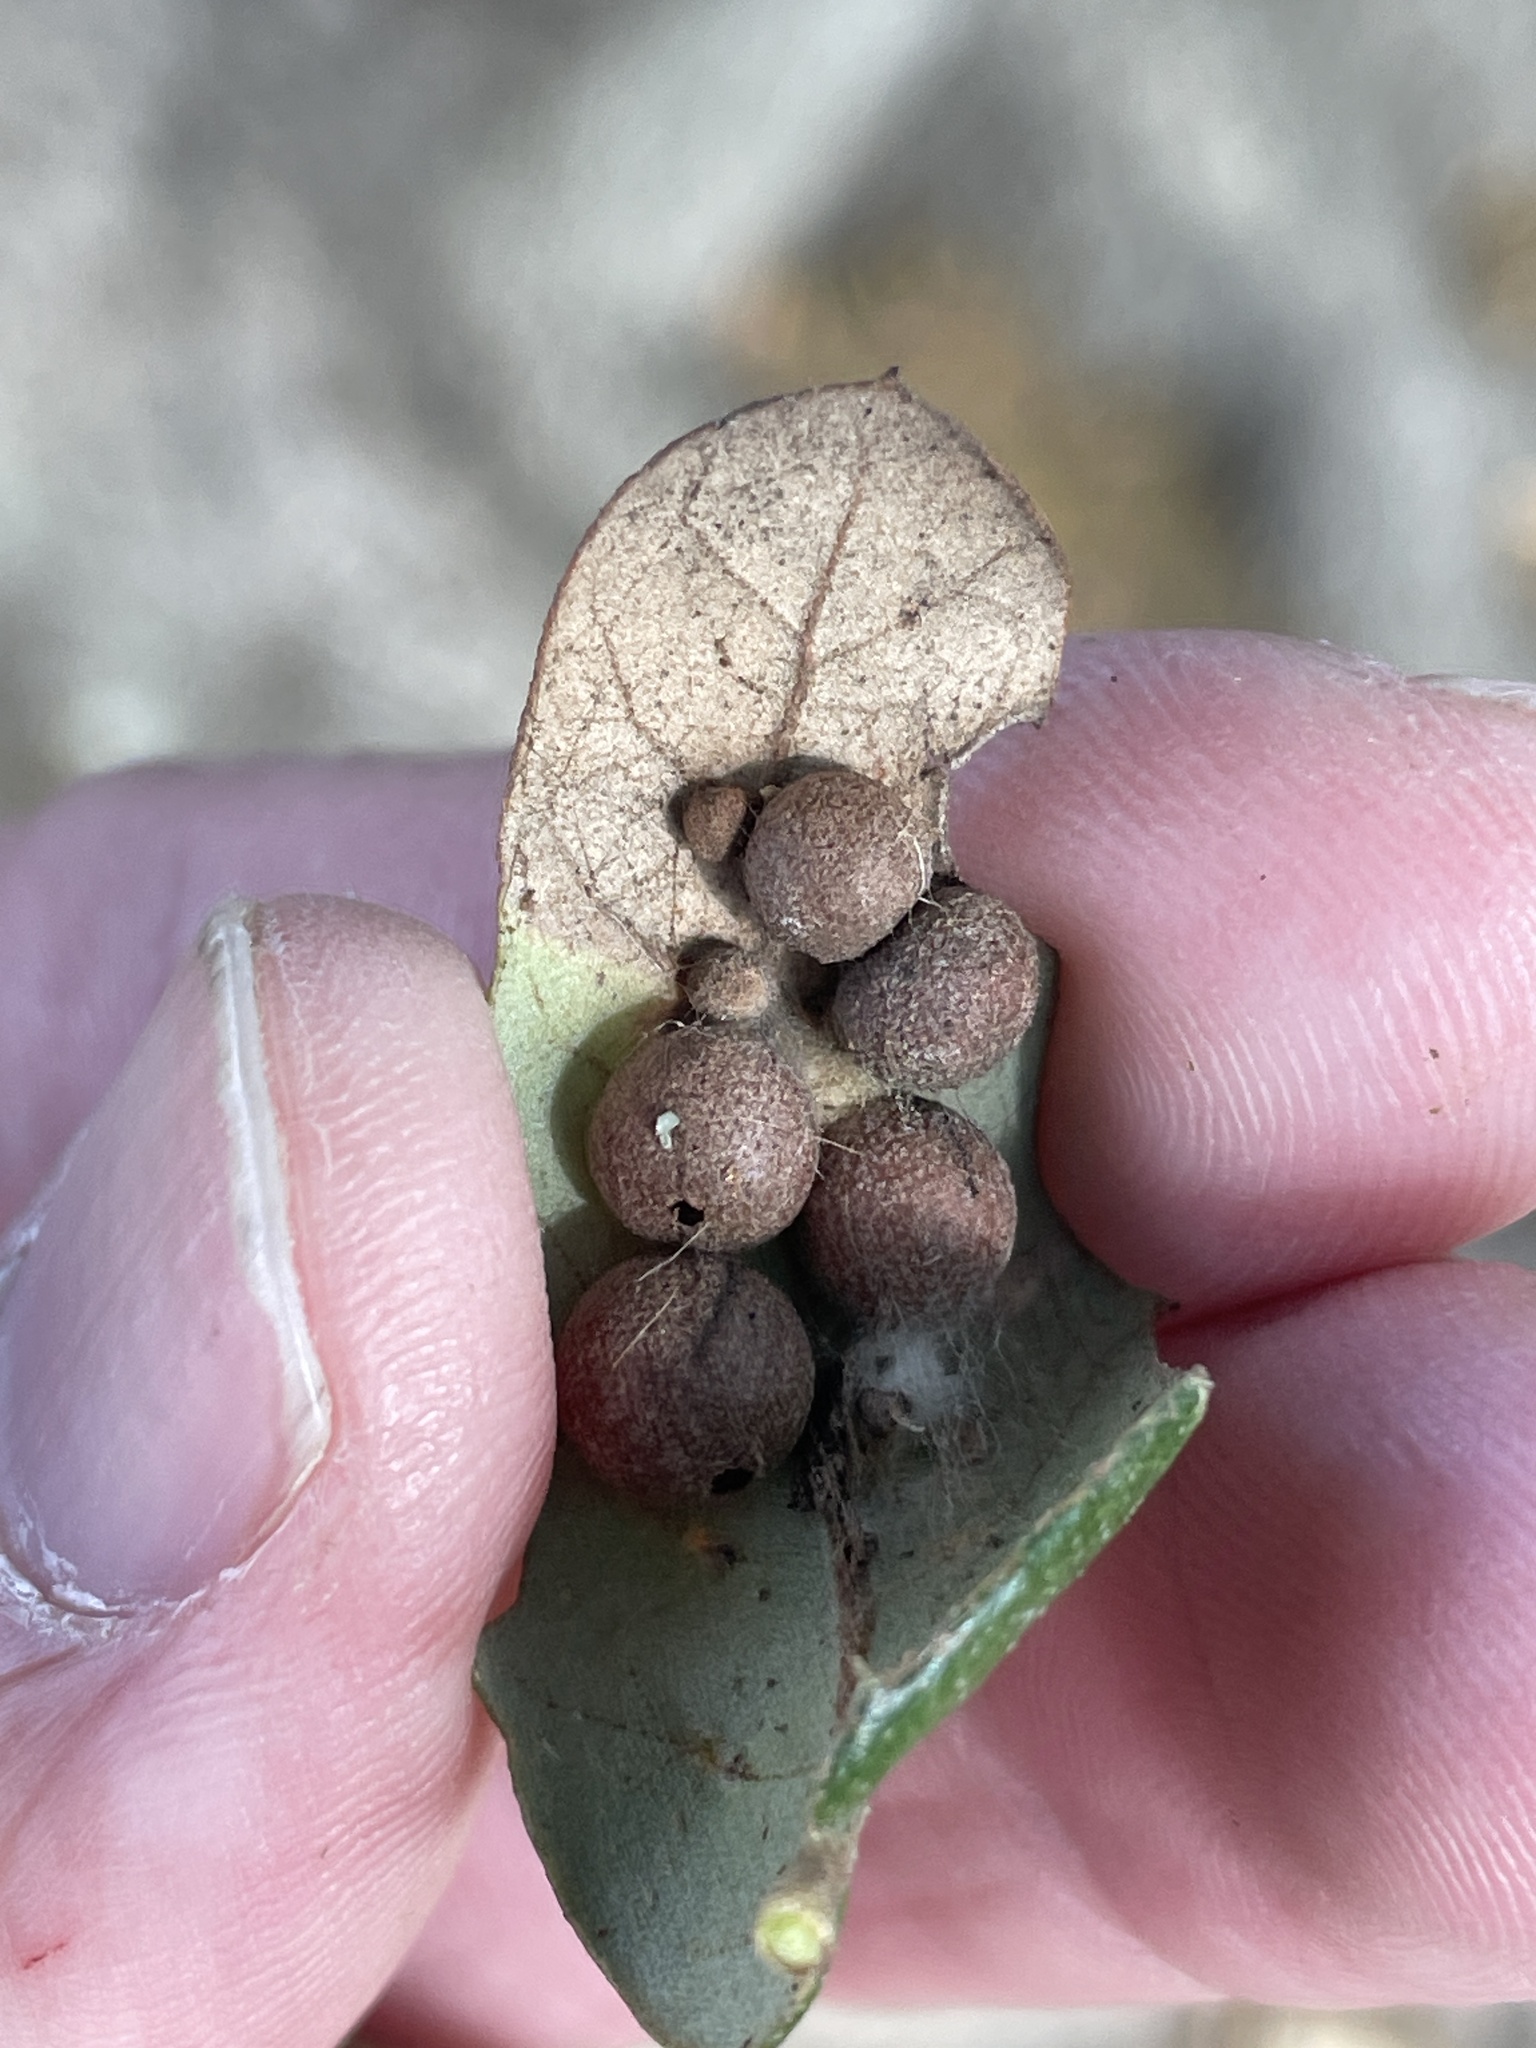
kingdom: Animalia
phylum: Arthropoda
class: Insecta
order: Hymenoptera
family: Cynipidae
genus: Belonocnema
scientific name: Belonocnema kinseyi
